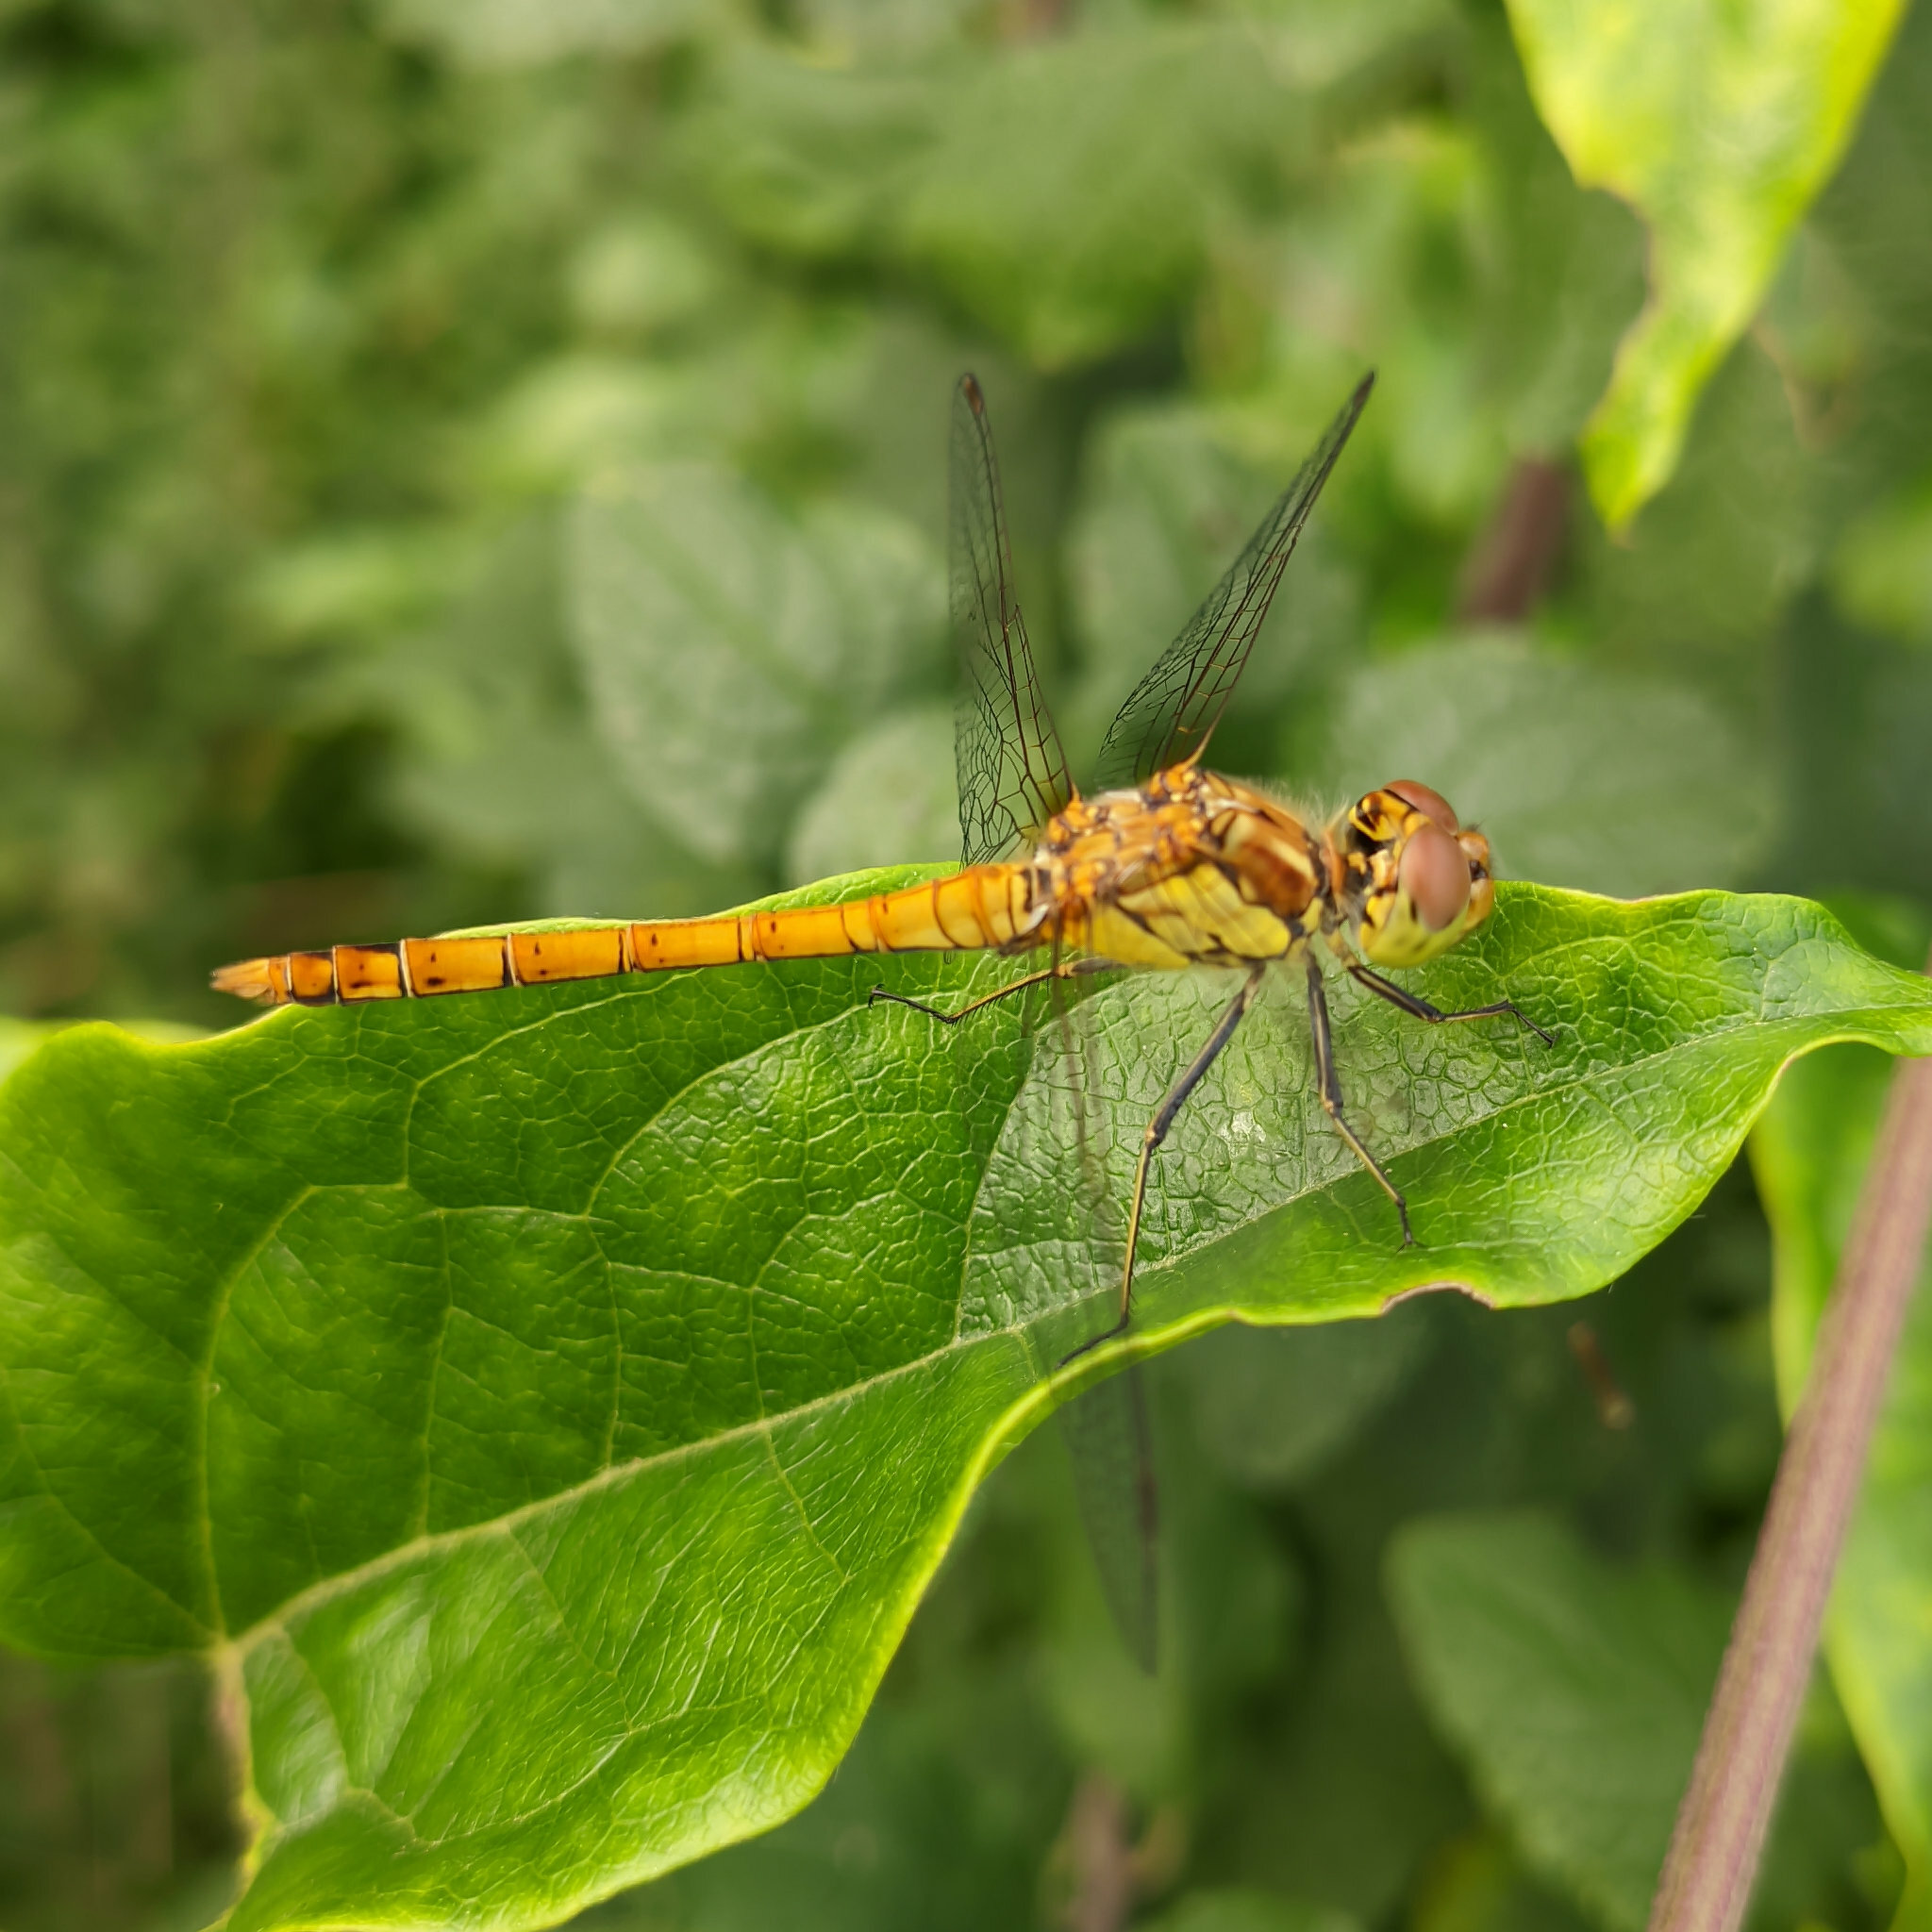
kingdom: Animalia
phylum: Arthropoda
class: Insecta
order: Odonata
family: Libellulidae
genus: Sympetrum
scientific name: Sympetrum striolatum
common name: Common darter
